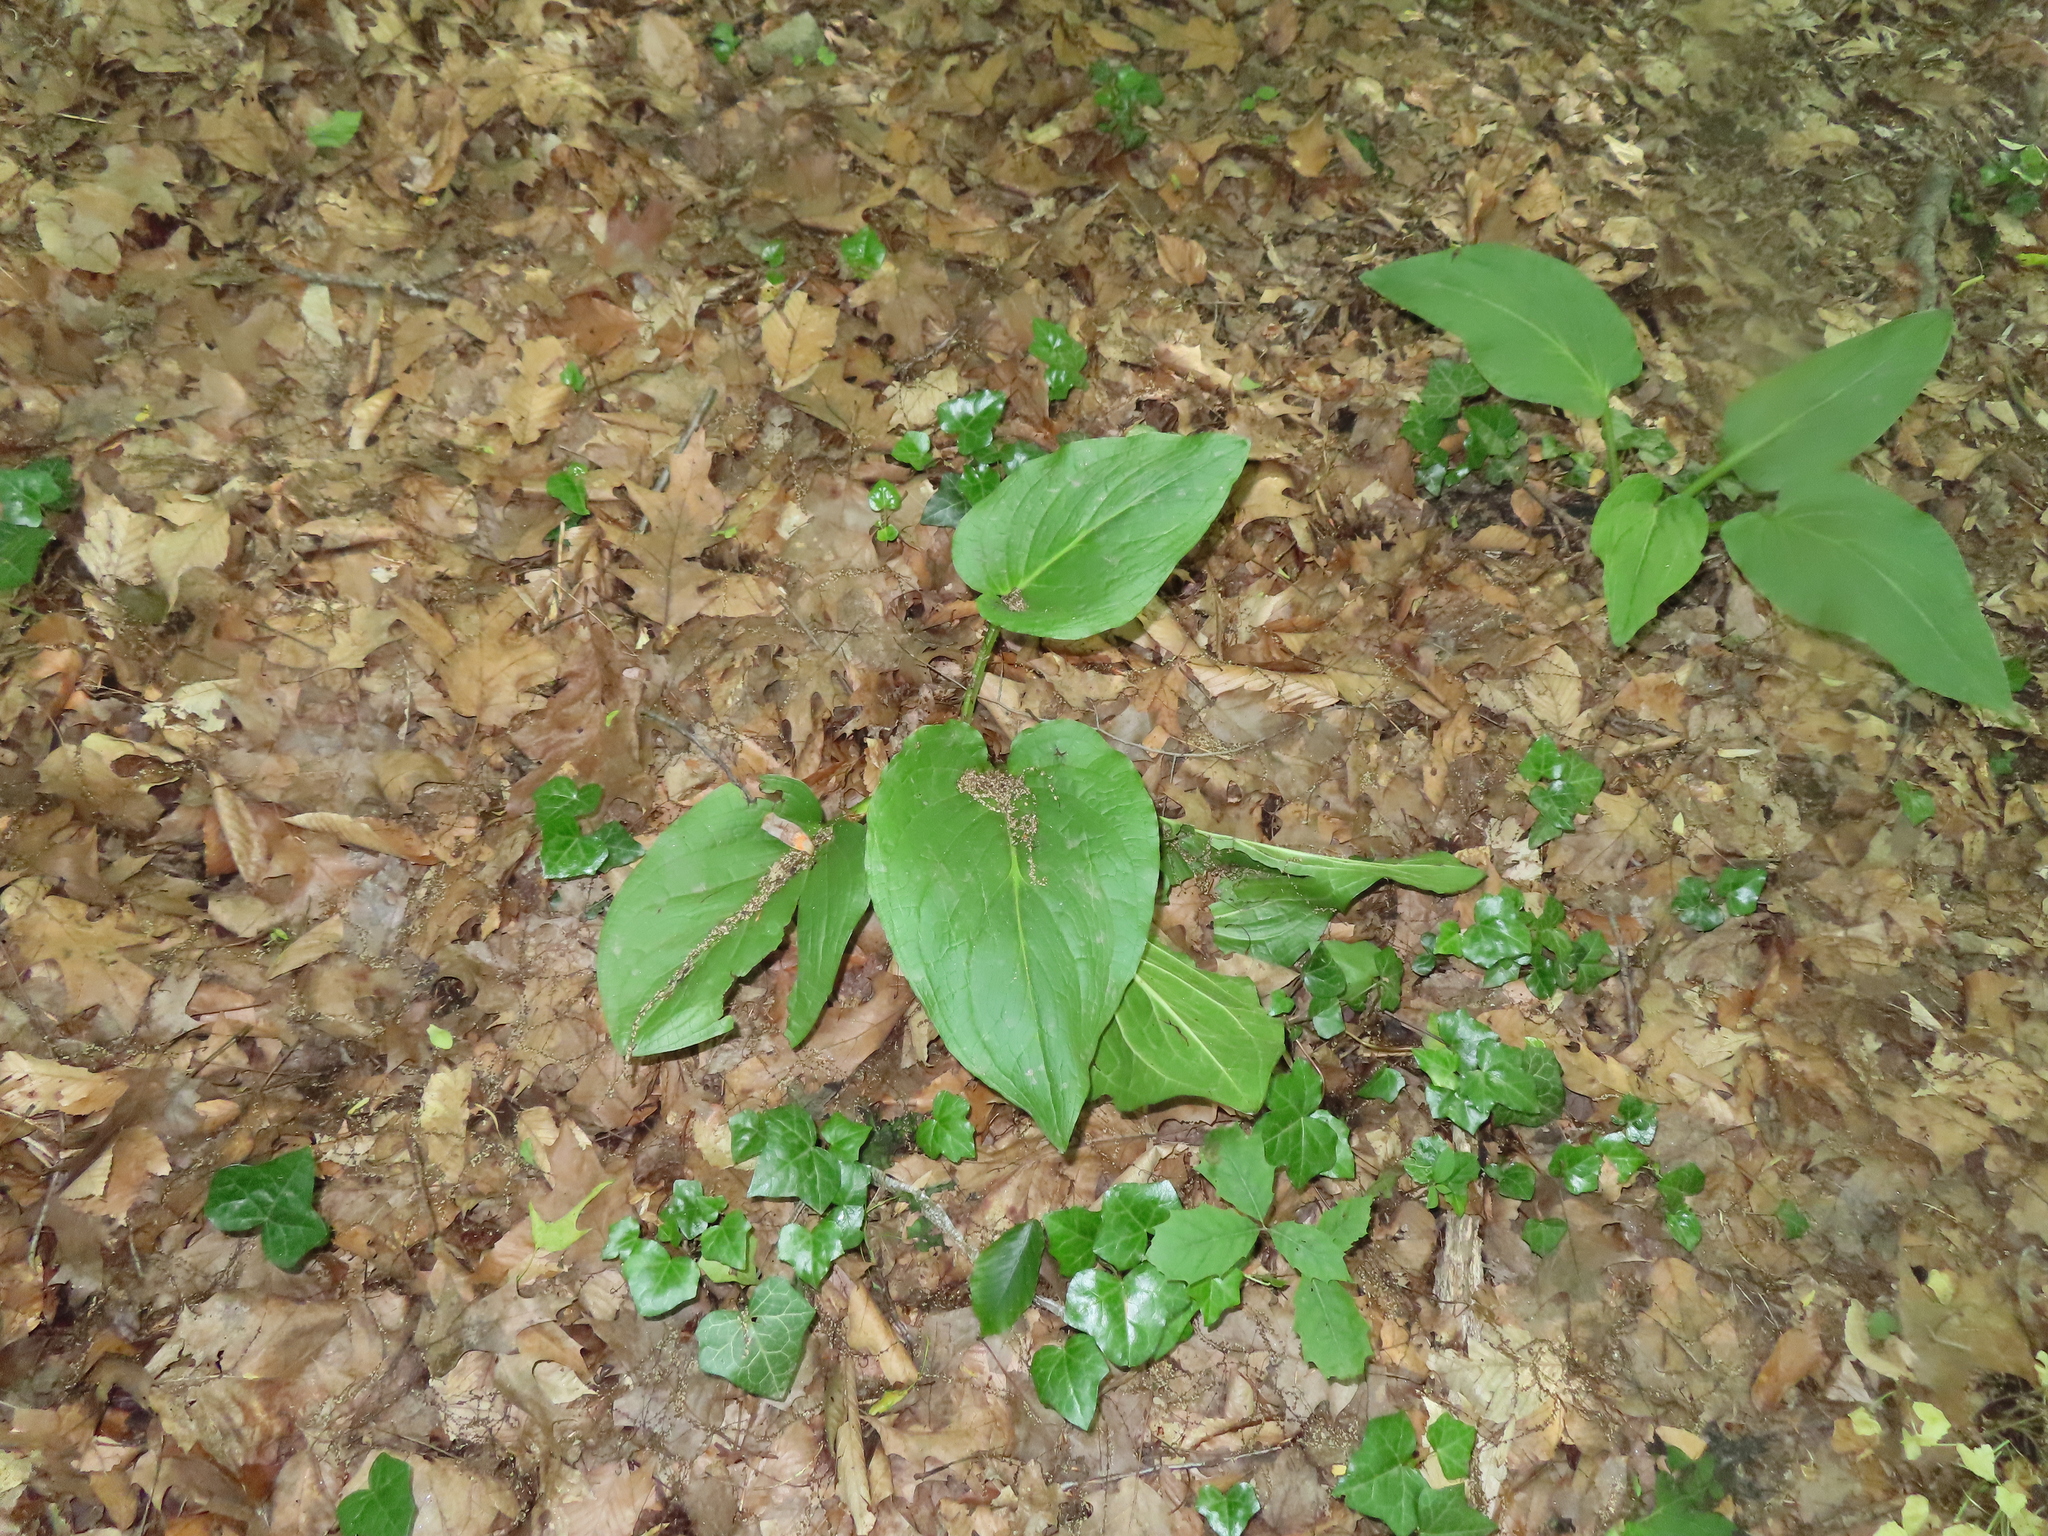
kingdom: Plantae
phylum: Tracheophyta
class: Liliopsida
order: Alismatales
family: Araceae
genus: Symplocarpus
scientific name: Symplocarpus foetidus
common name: Eastern skunk cabbage
